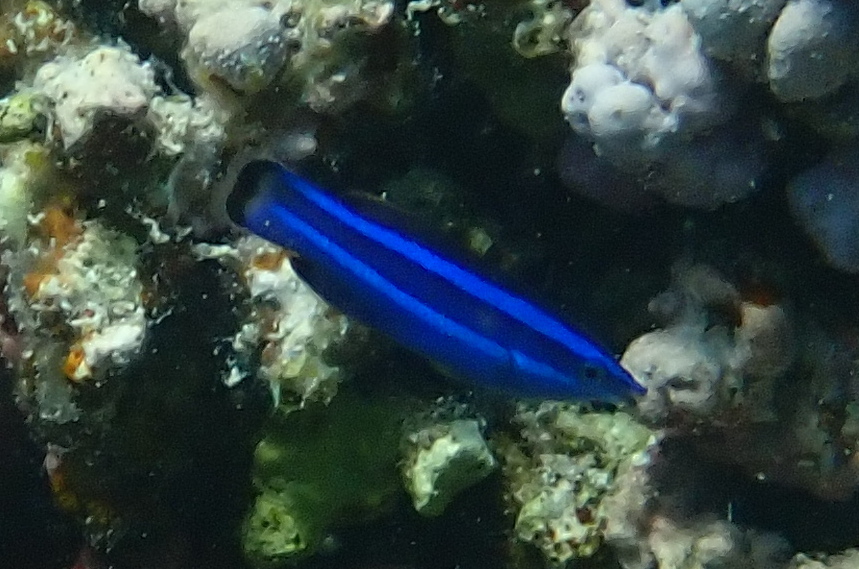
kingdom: Animalia
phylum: Chordata
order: Perciformes
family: Labridae
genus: Larabicus
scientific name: Larabicus quadrilineatus
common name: Fourline wrasse
